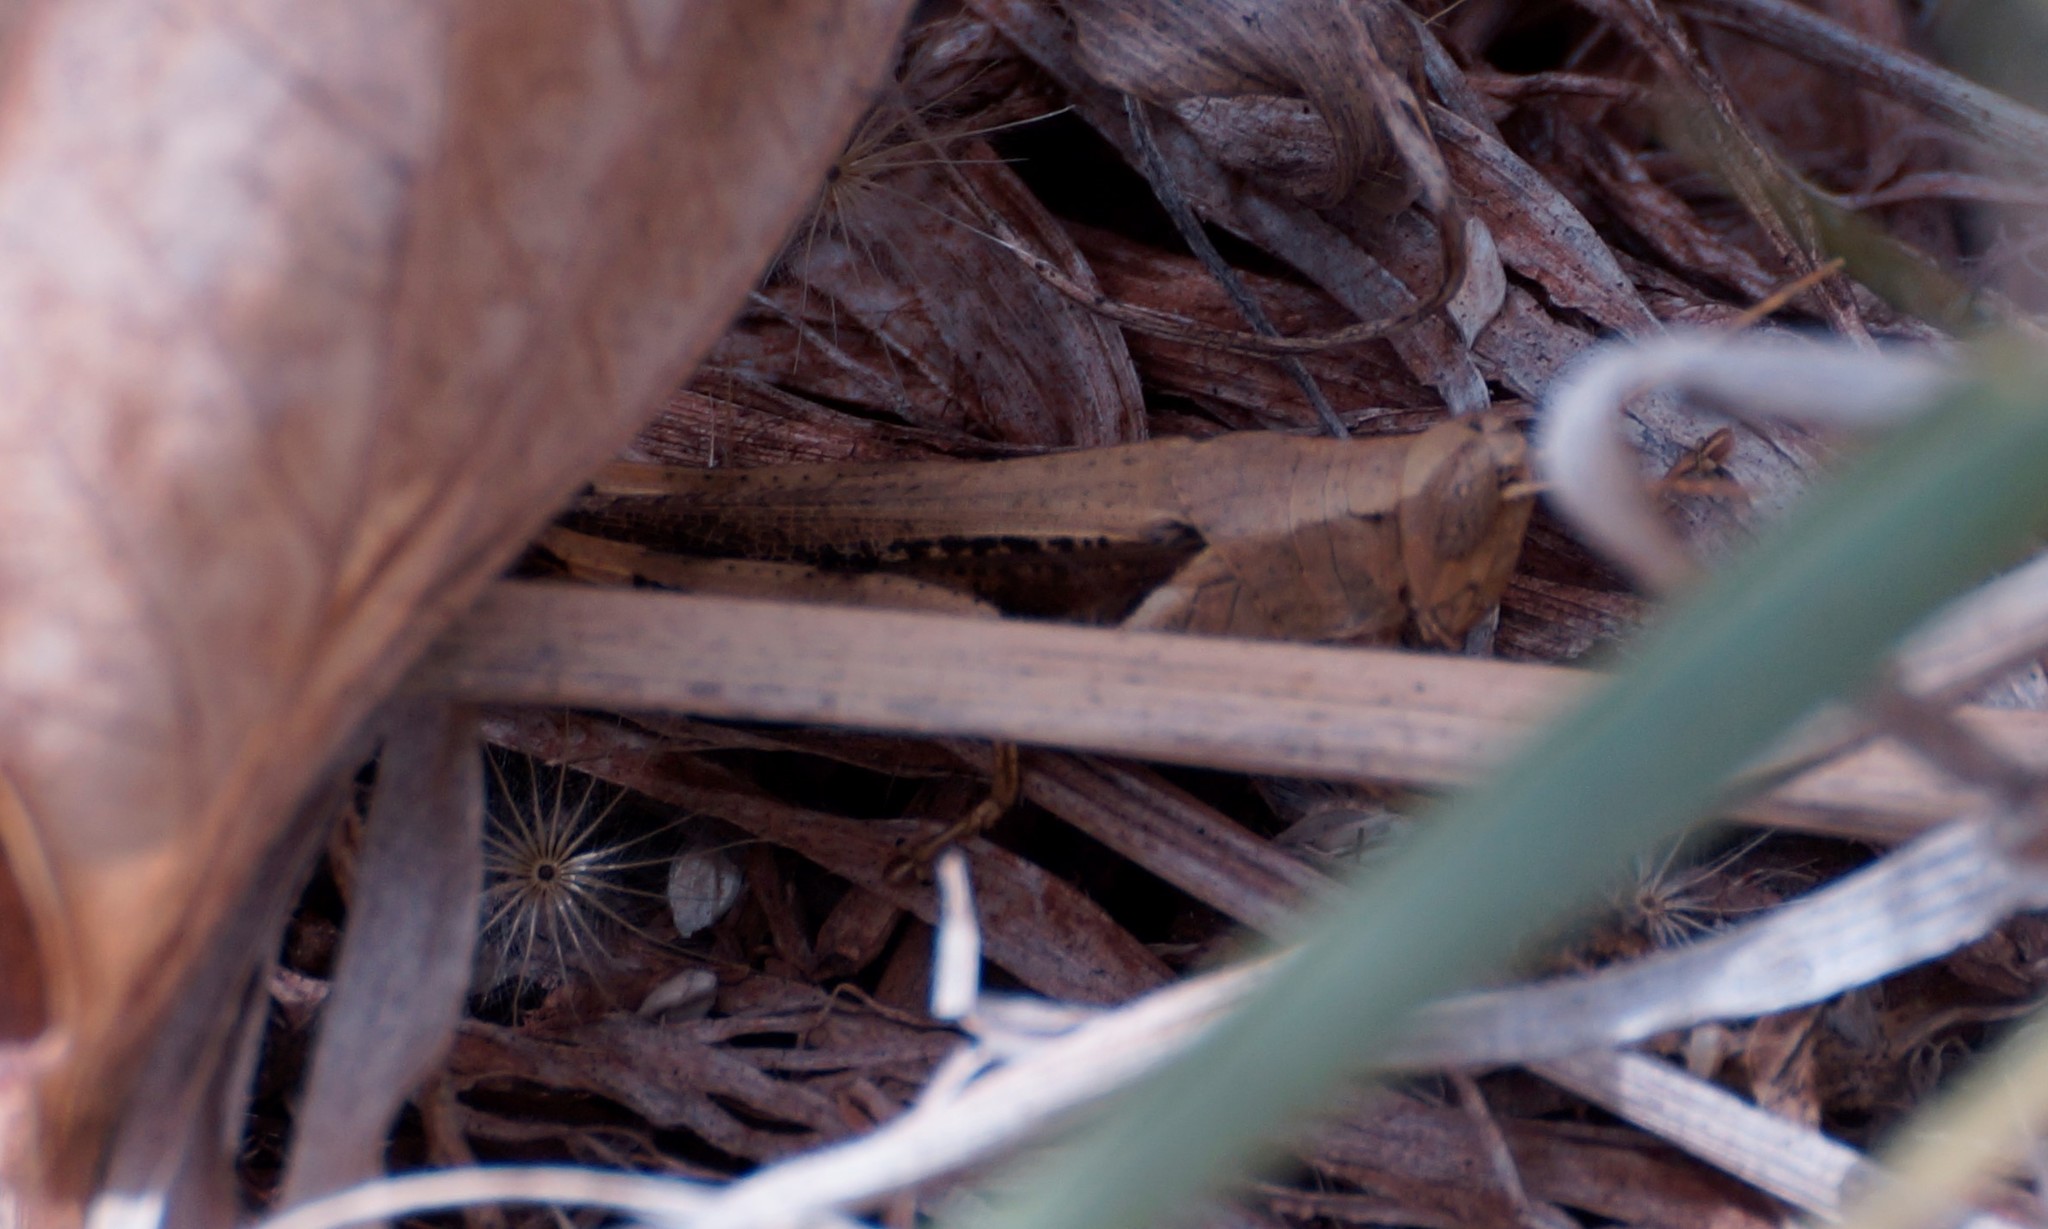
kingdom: Animalia
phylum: Arthropoda
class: Insecta
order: Orthoptera
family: Acrididae
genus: Stenocatantops
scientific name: Stenocatantops angustifrons
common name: Common tropical sharptail
